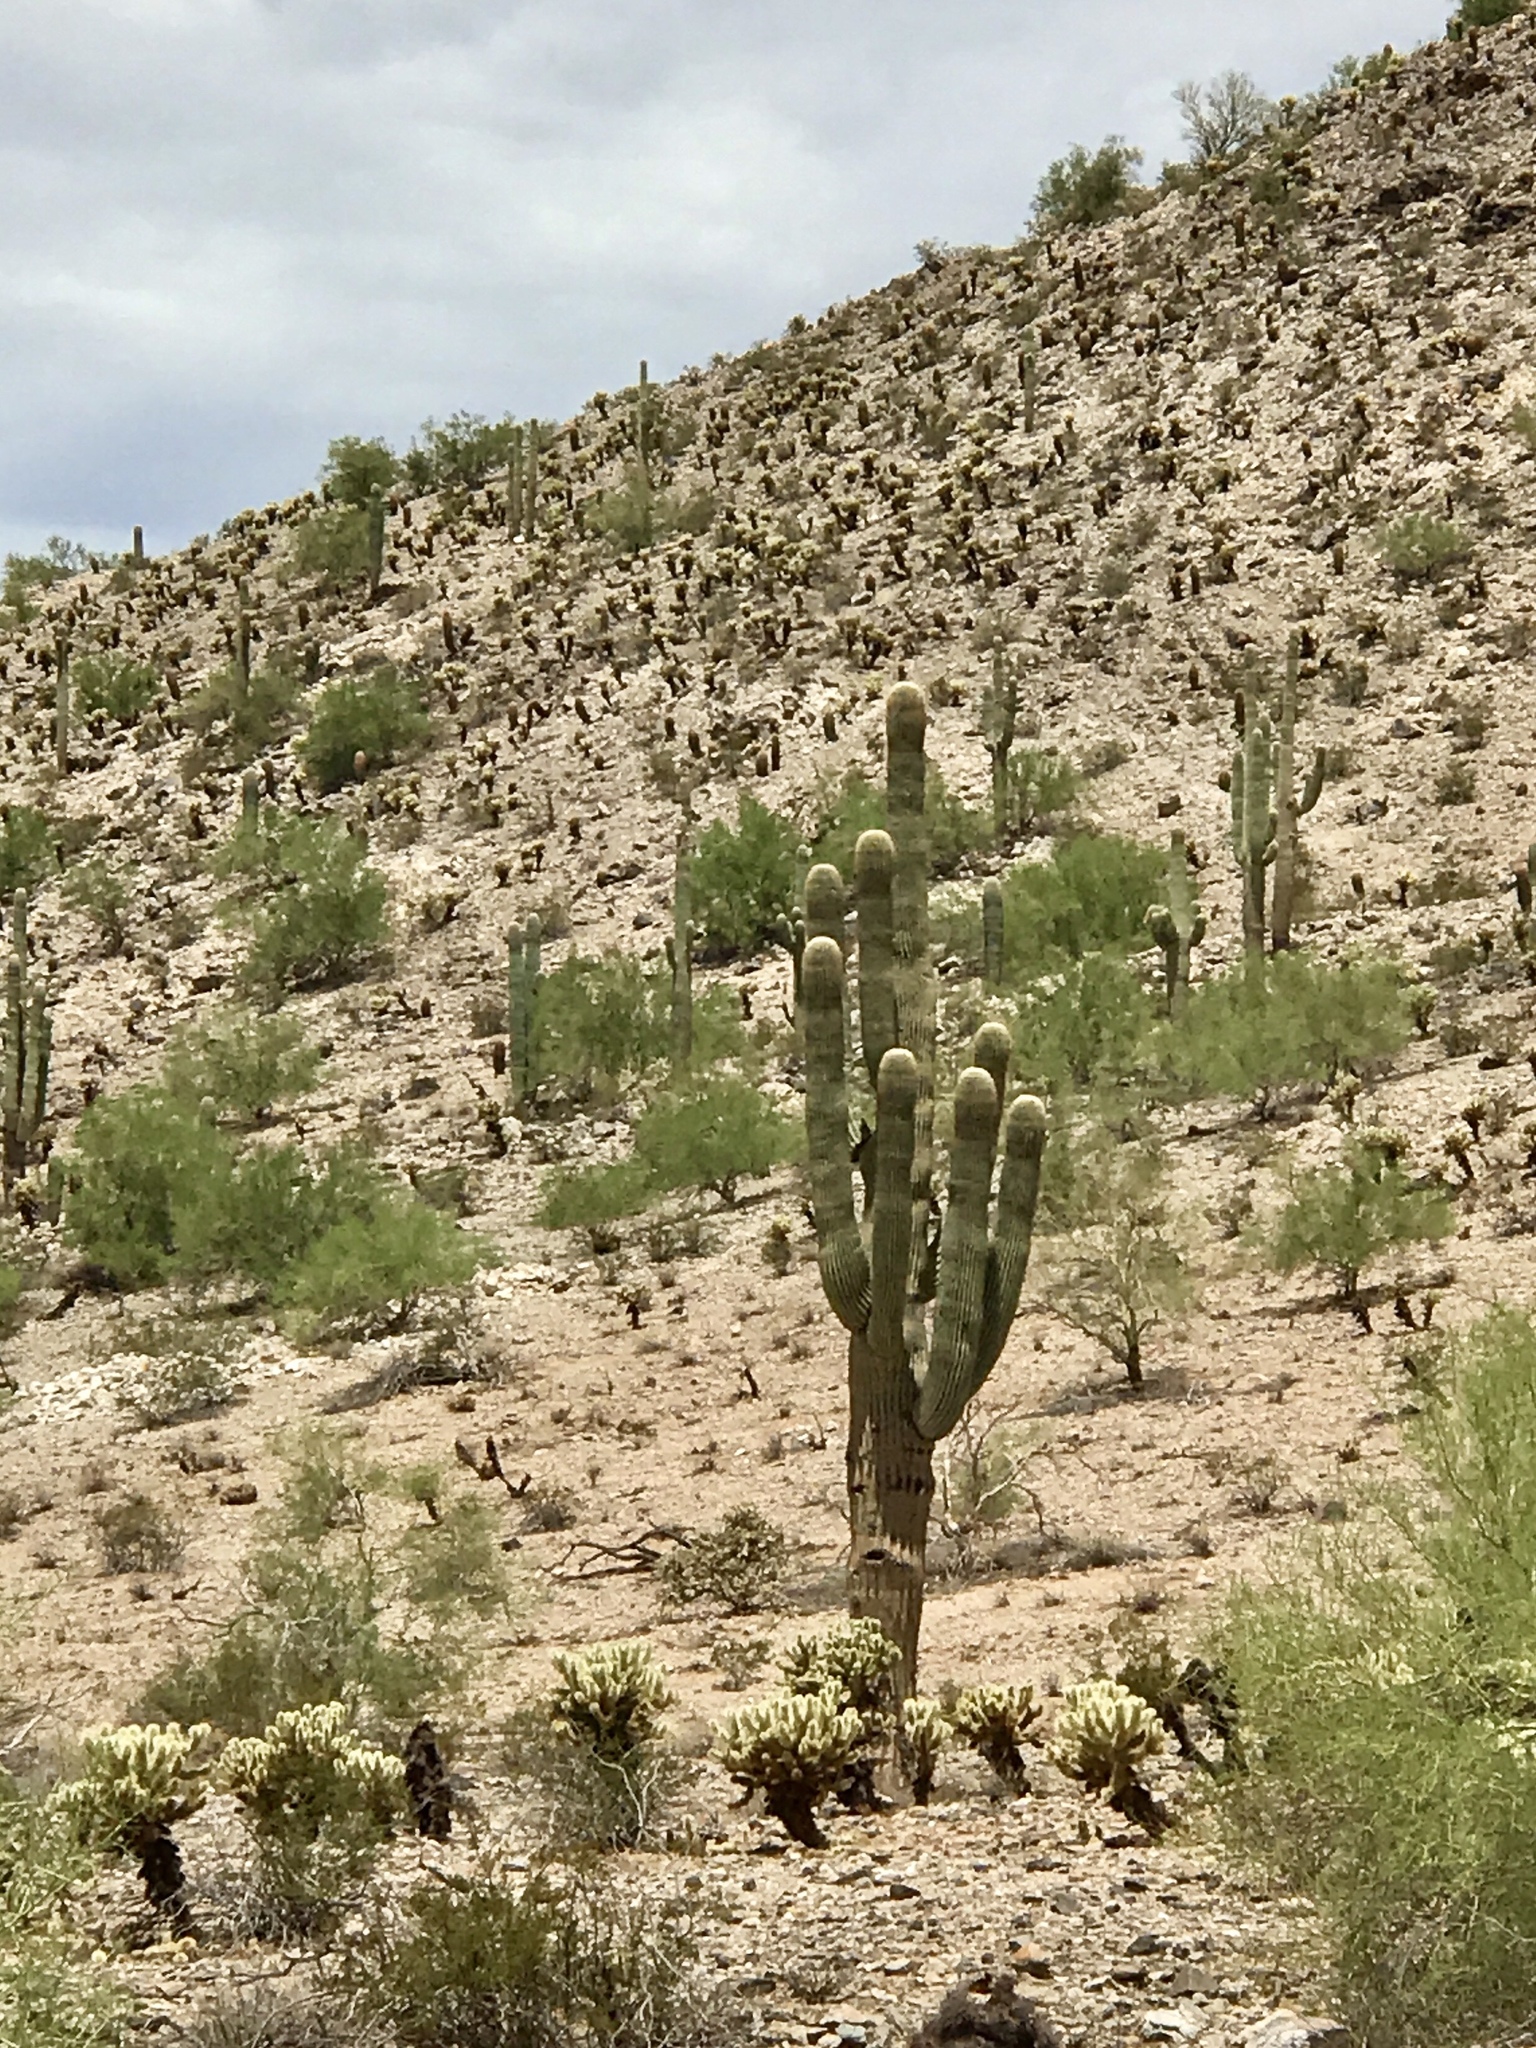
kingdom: Plantae
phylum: Tracheophyta
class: Magnoliopsida
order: Caryophyllales
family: Cactaceae
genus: Carnegiea
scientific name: Carnegiea gigantea
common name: Saguaro
